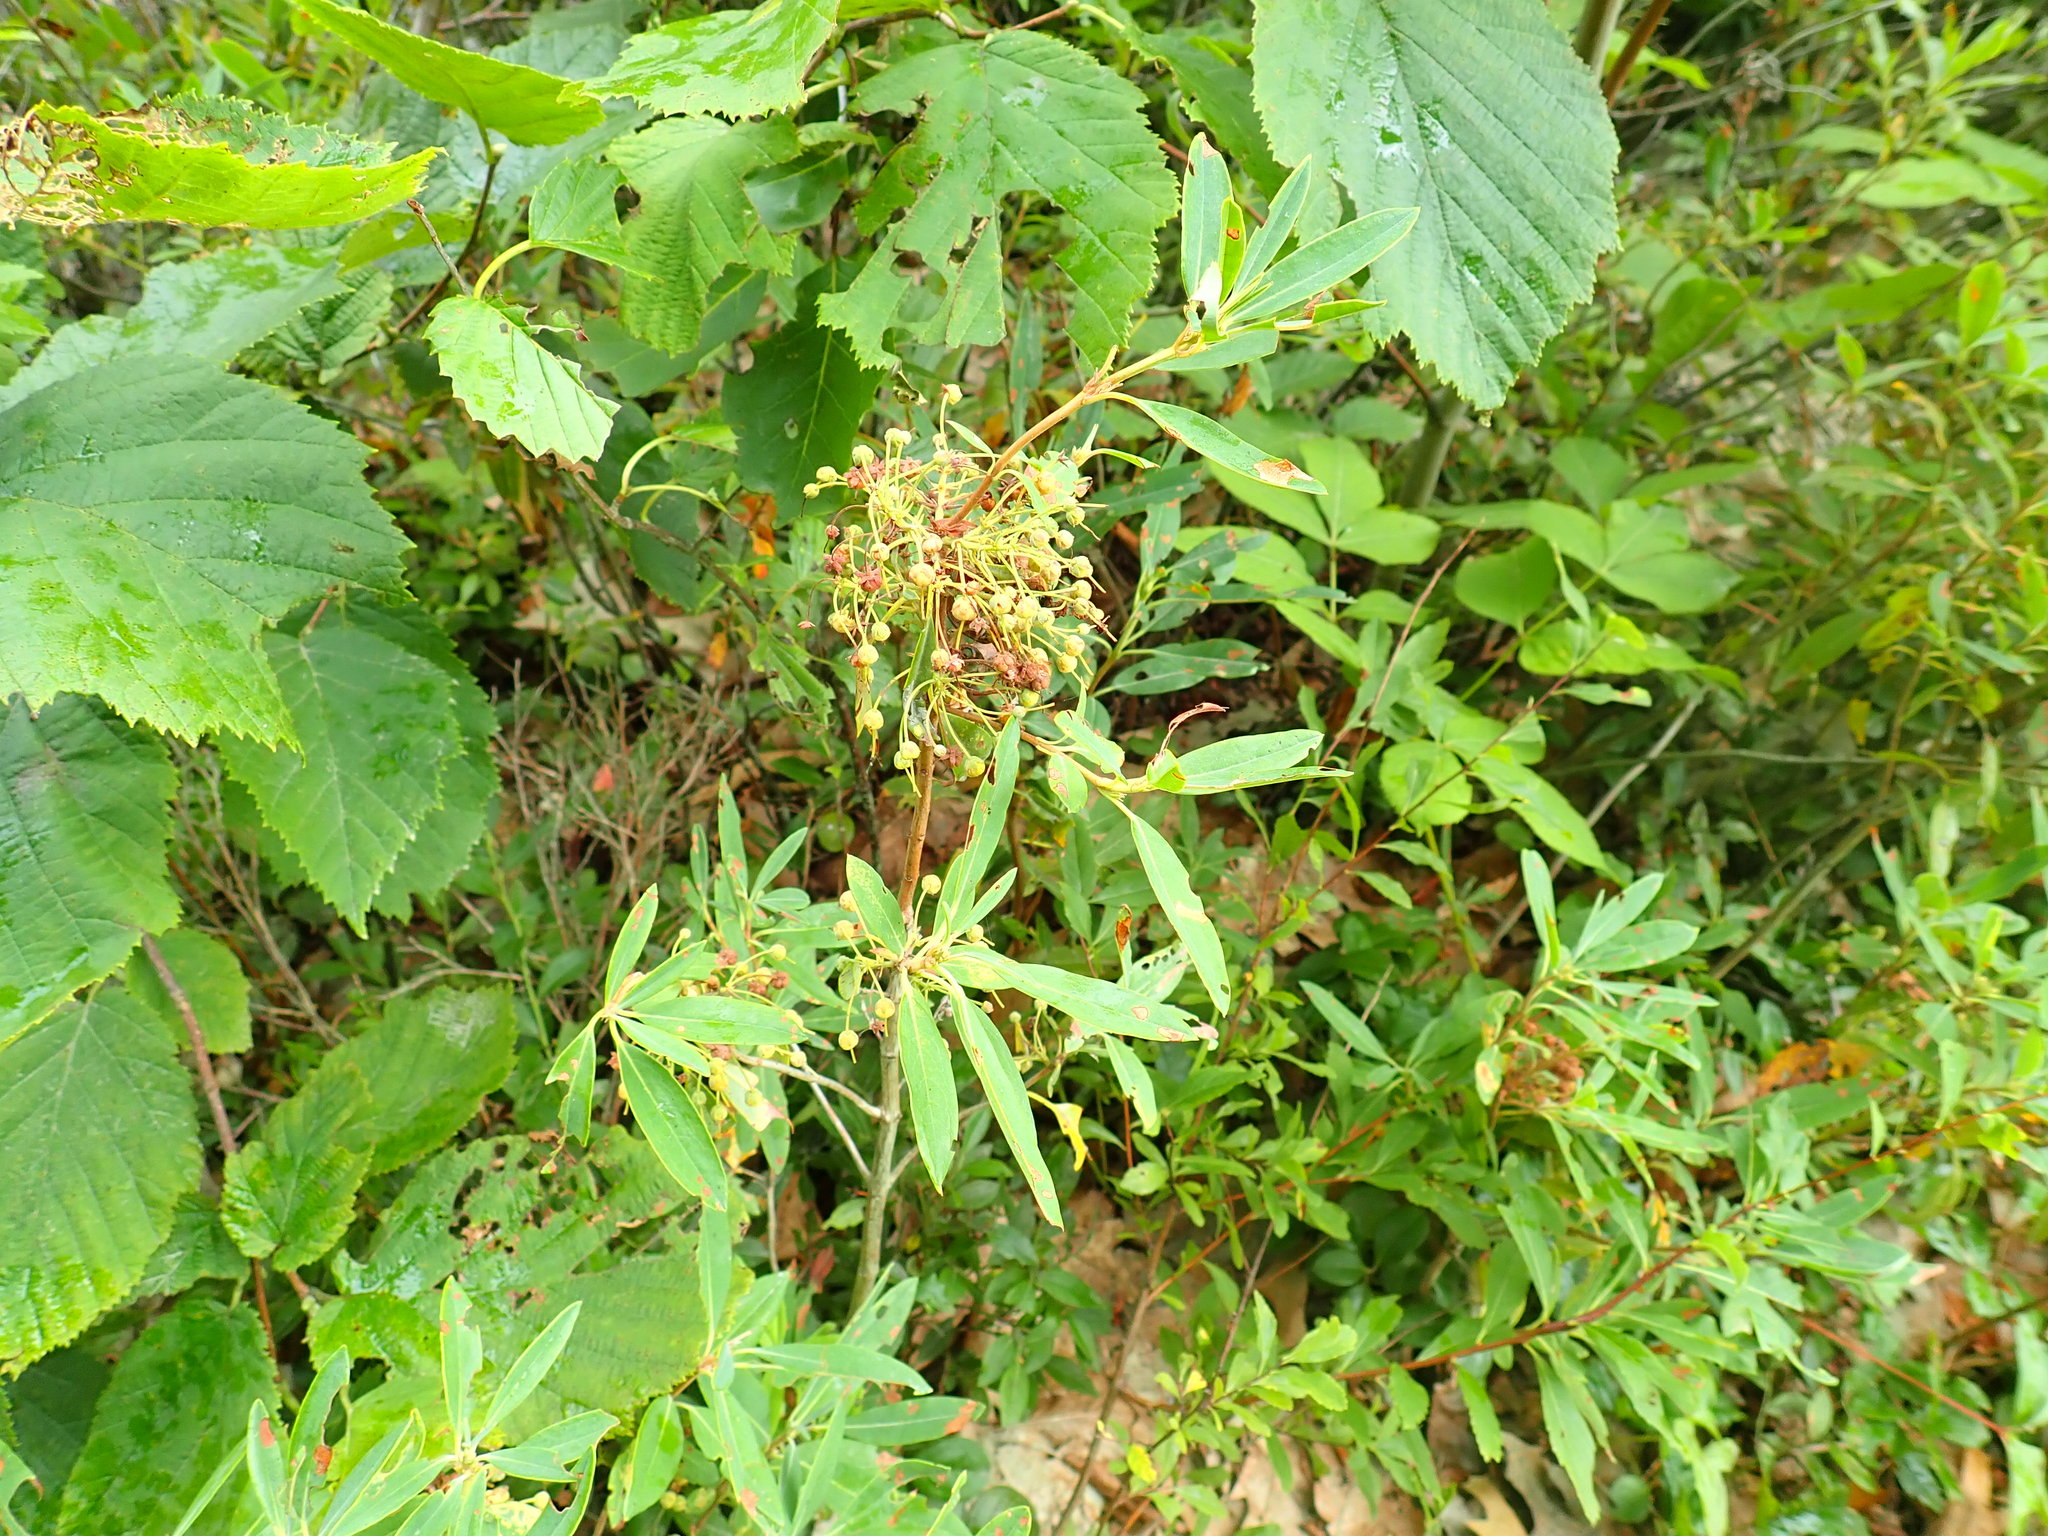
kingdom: Plantae
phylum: Tracheophyta
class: Magnoliopsida
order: Ericales
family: Ericaceae
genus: Kalmia
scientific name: Kalmia angustifolia
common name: Sheep-laurel
